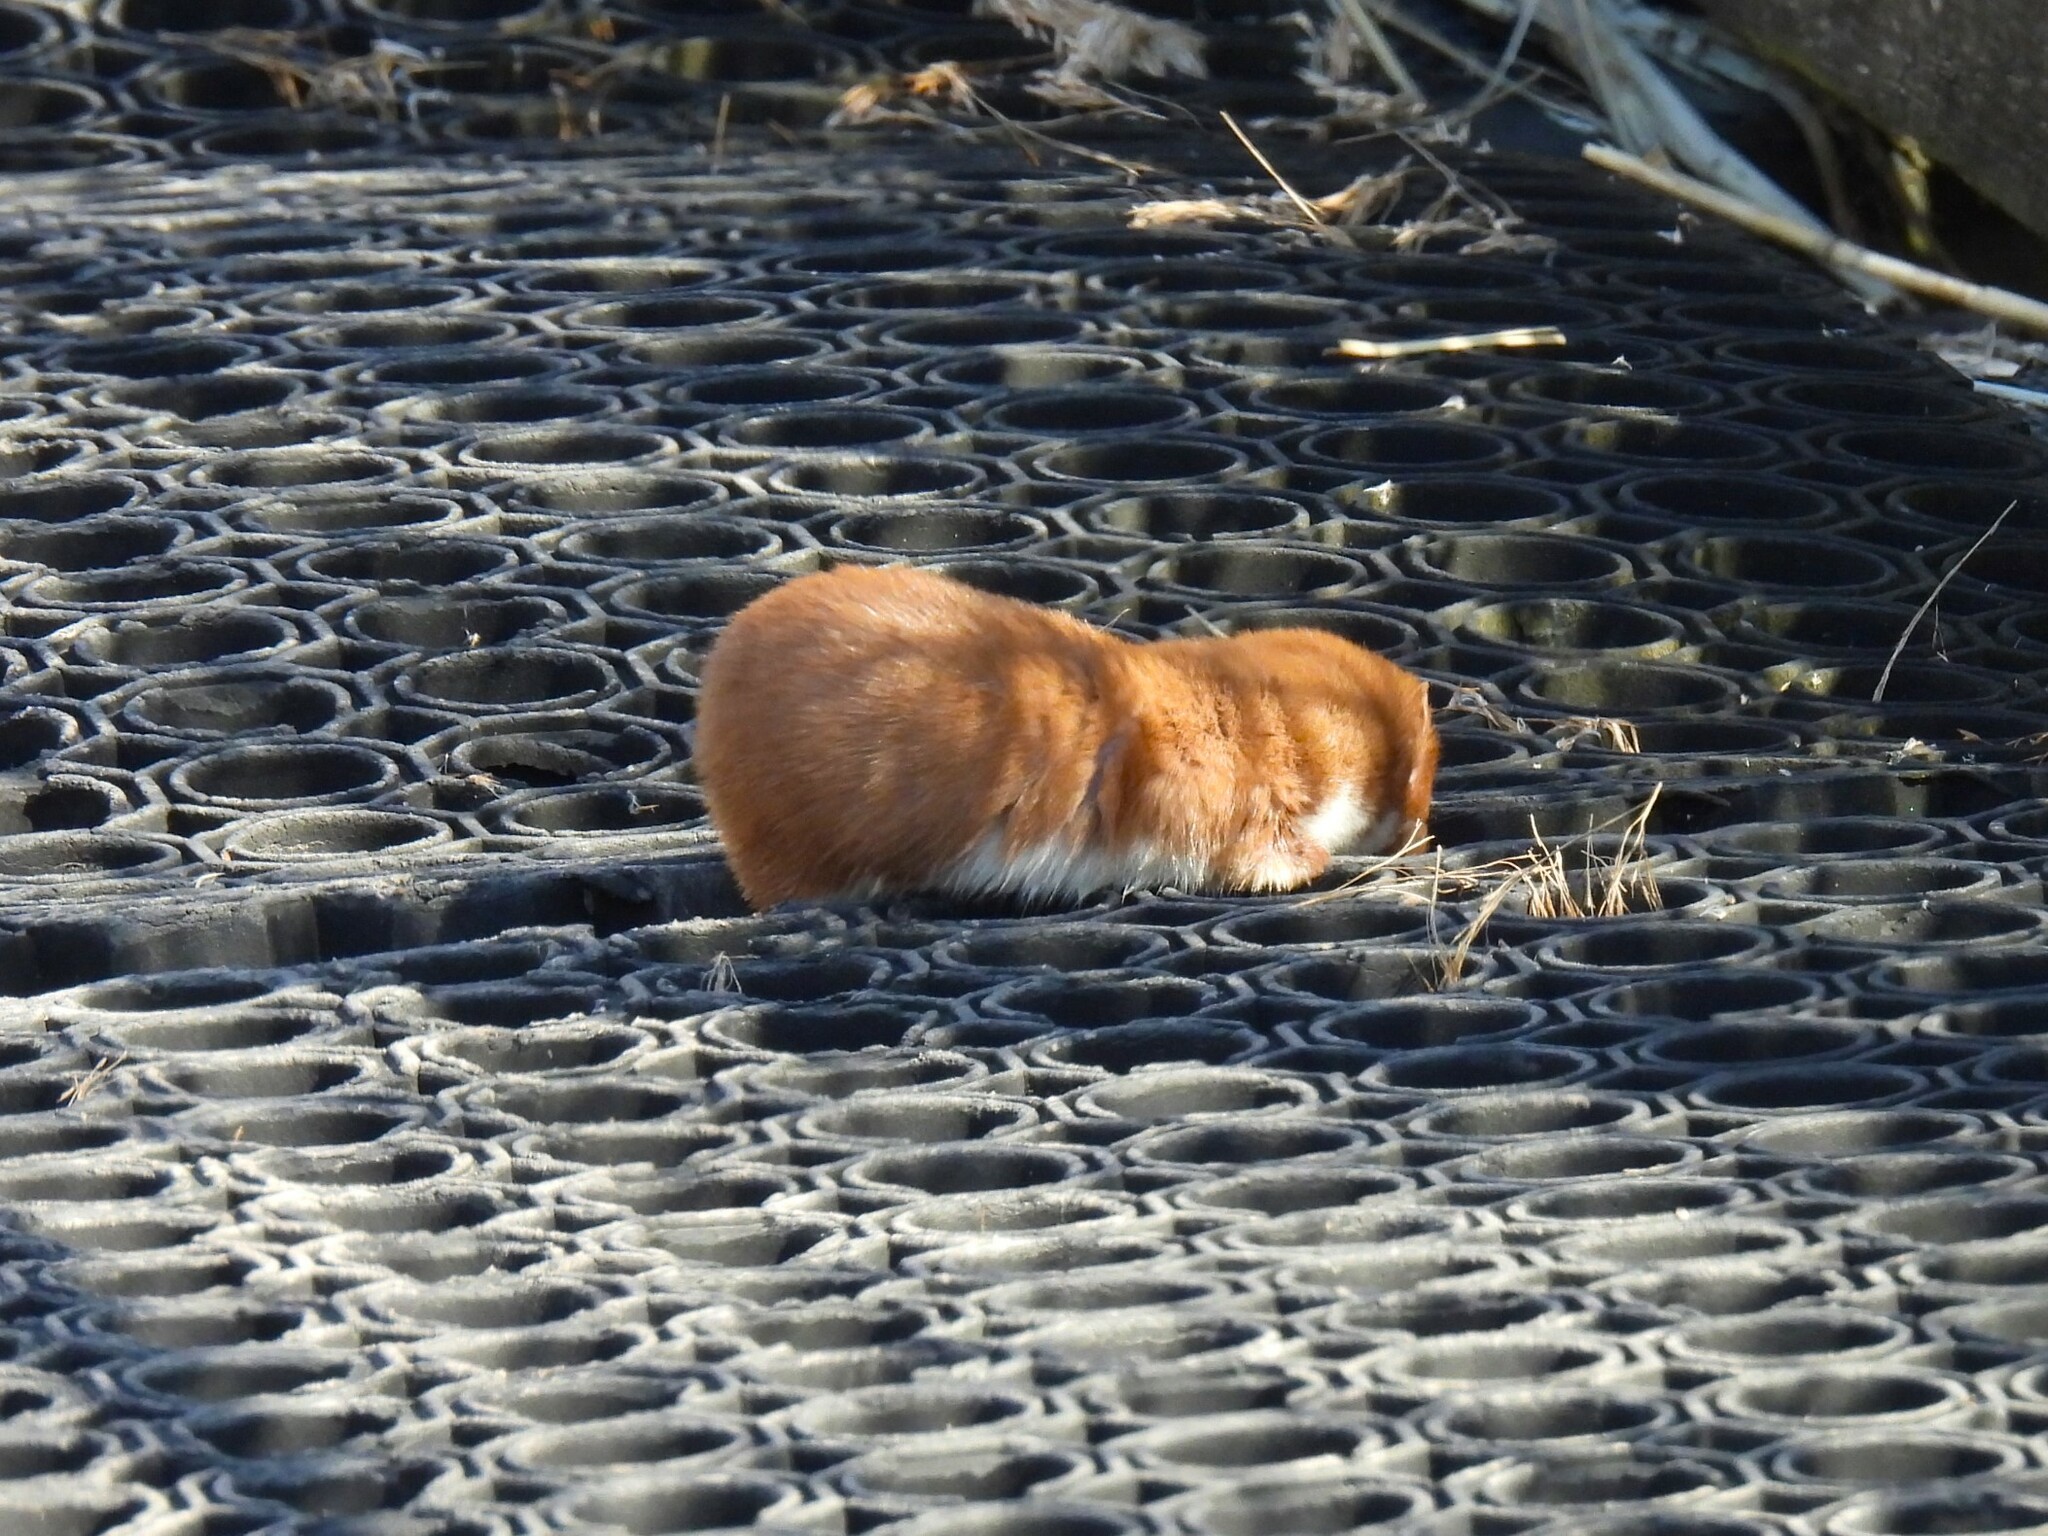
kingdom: Animalia
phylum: Chordata
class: Mammalia
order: Carnivora
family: Mustelidae
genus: Mustela
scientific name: Mustela nivalis
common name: Least weasel
